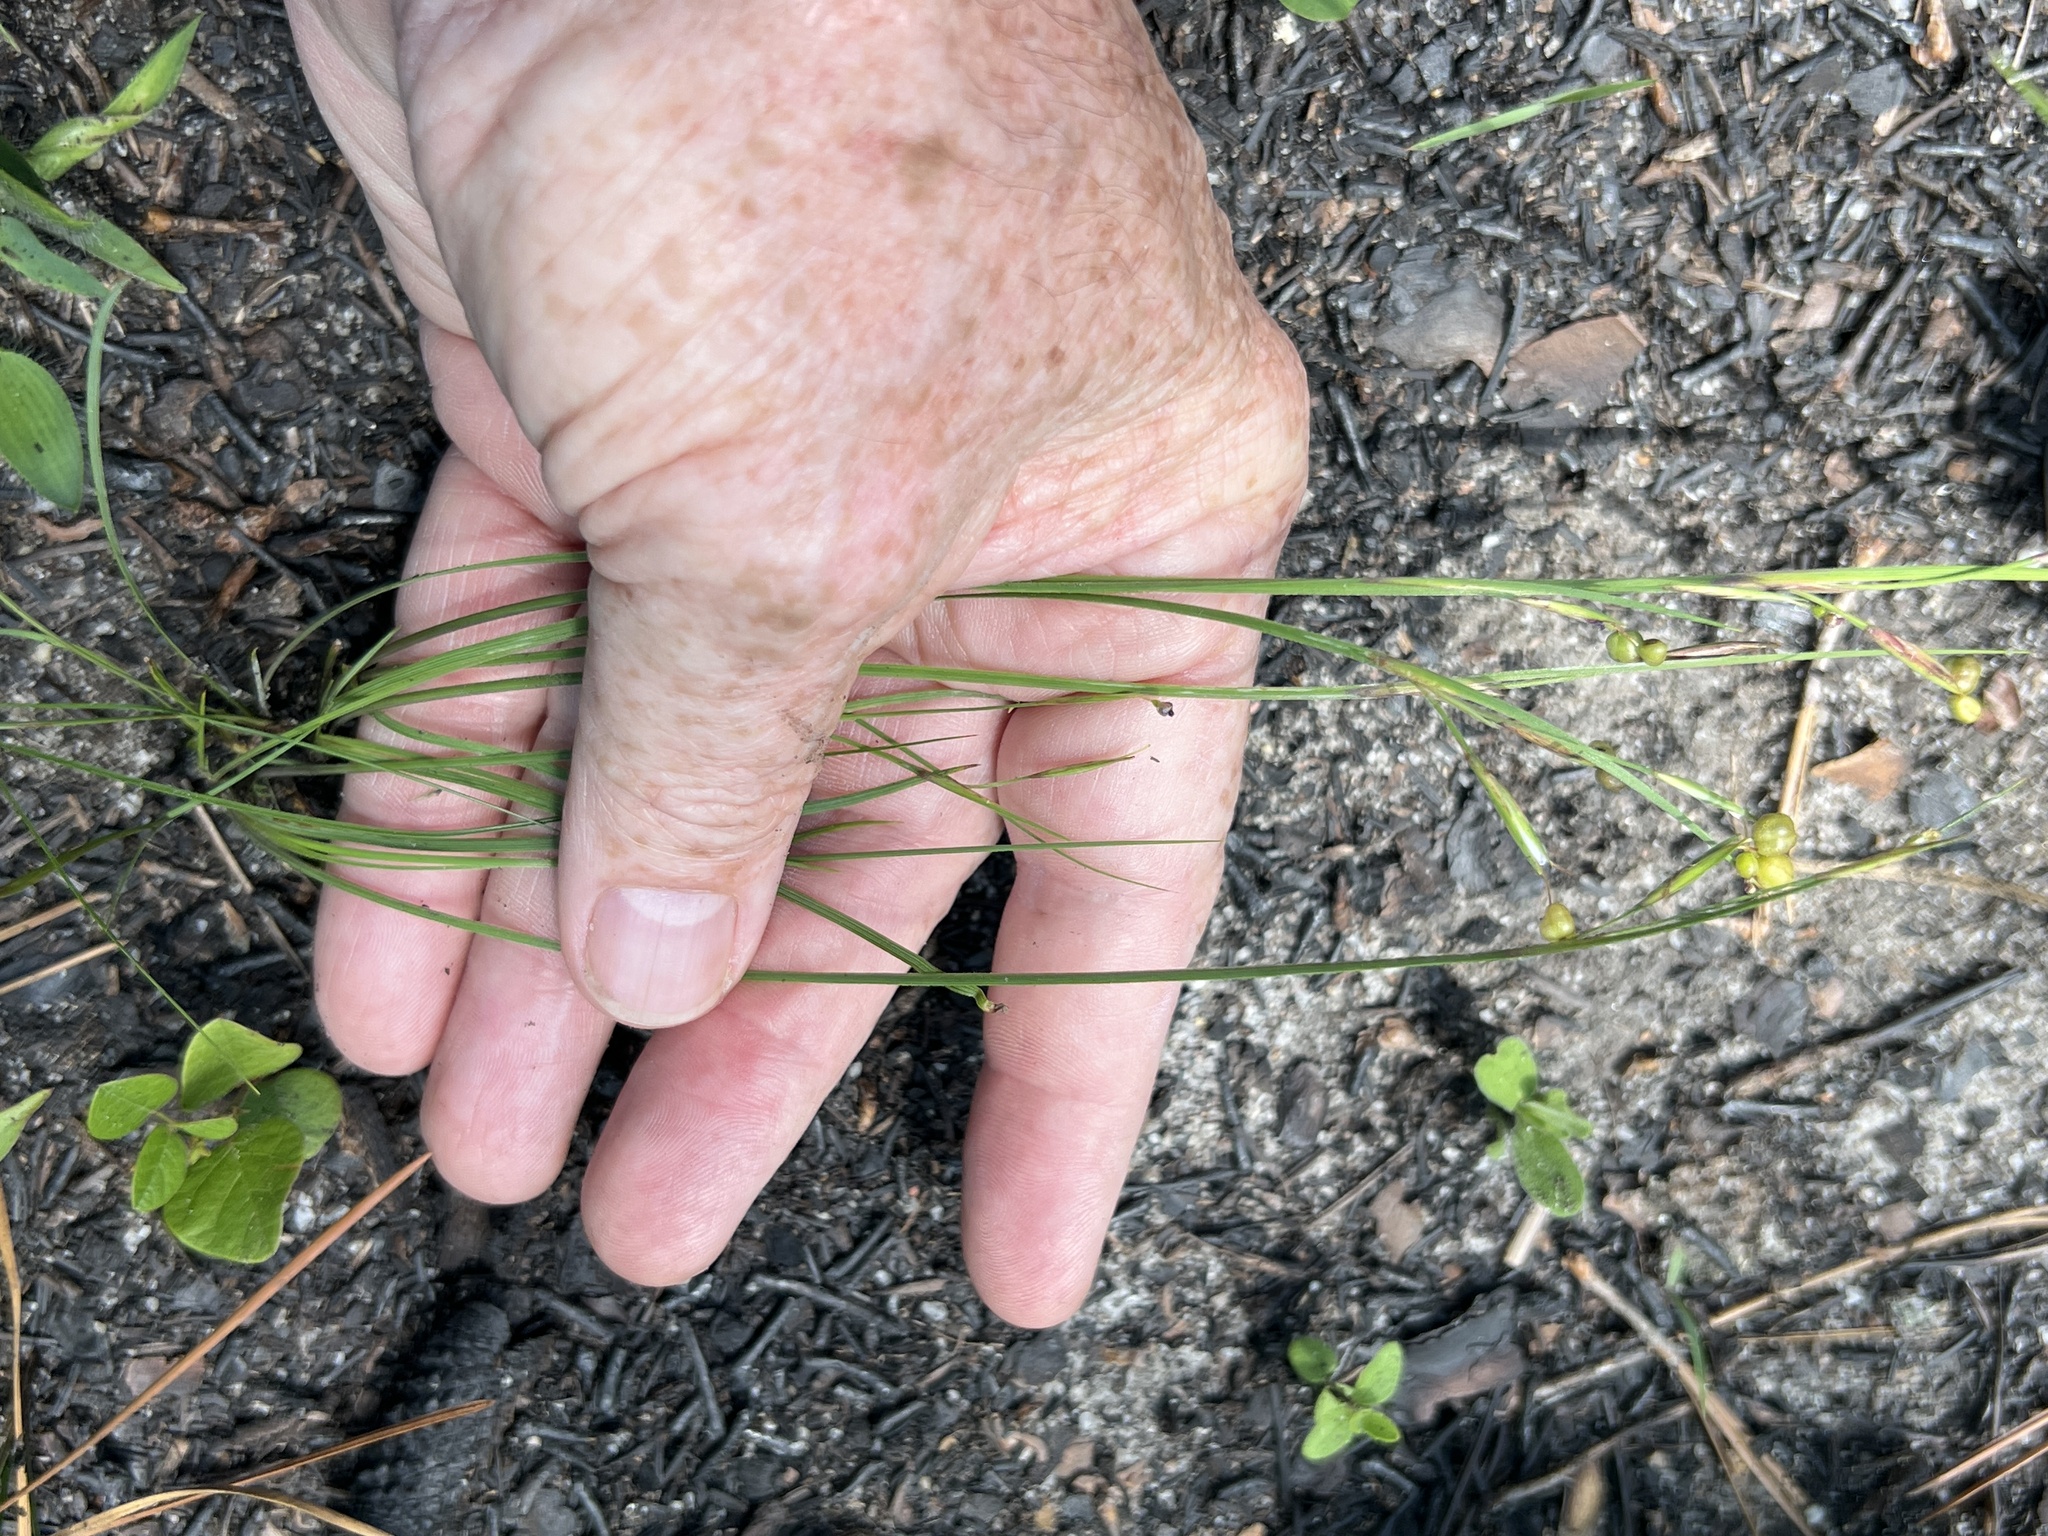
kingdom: Plantae
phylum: Tracheophyta
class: Liliopsida
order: Asparagales
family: Iridaceae
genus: Sisyrinchium
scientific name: Sisyrinchium fuscatum
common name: Coastal plain blue-eyed-grass
